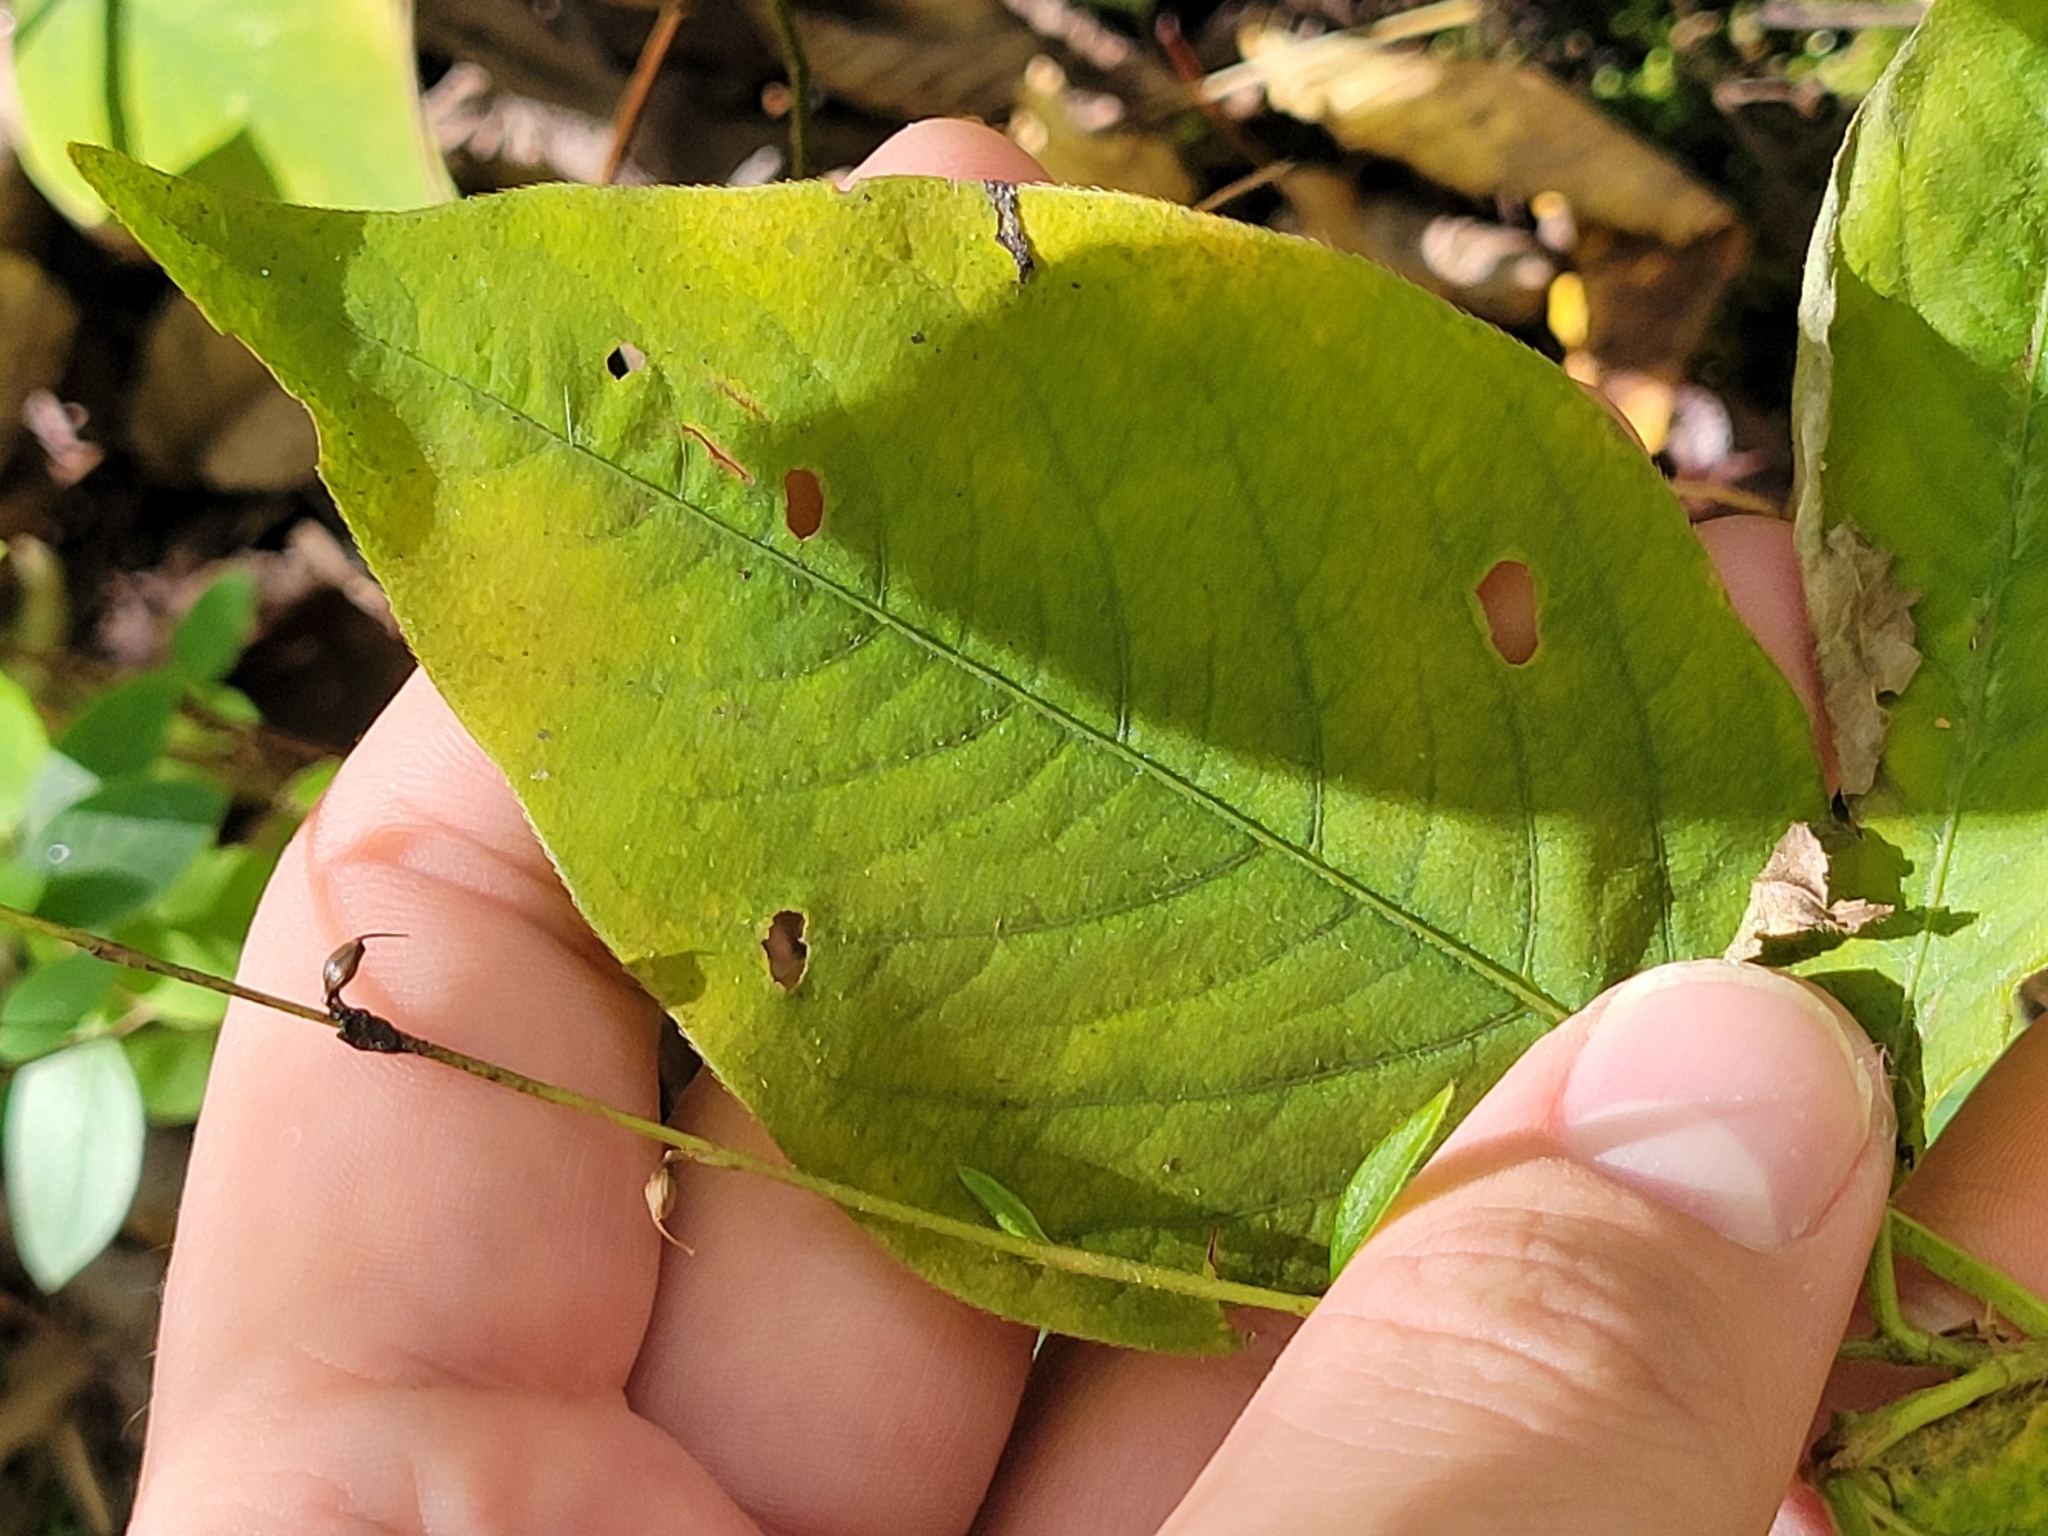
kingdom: Plantae
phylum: Tracheophyta
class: Magnoliopsida
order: Caryophyllales
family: Polygonaceae
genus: Persicaria
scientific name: Persicaria virginiana
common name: Jumpseed
